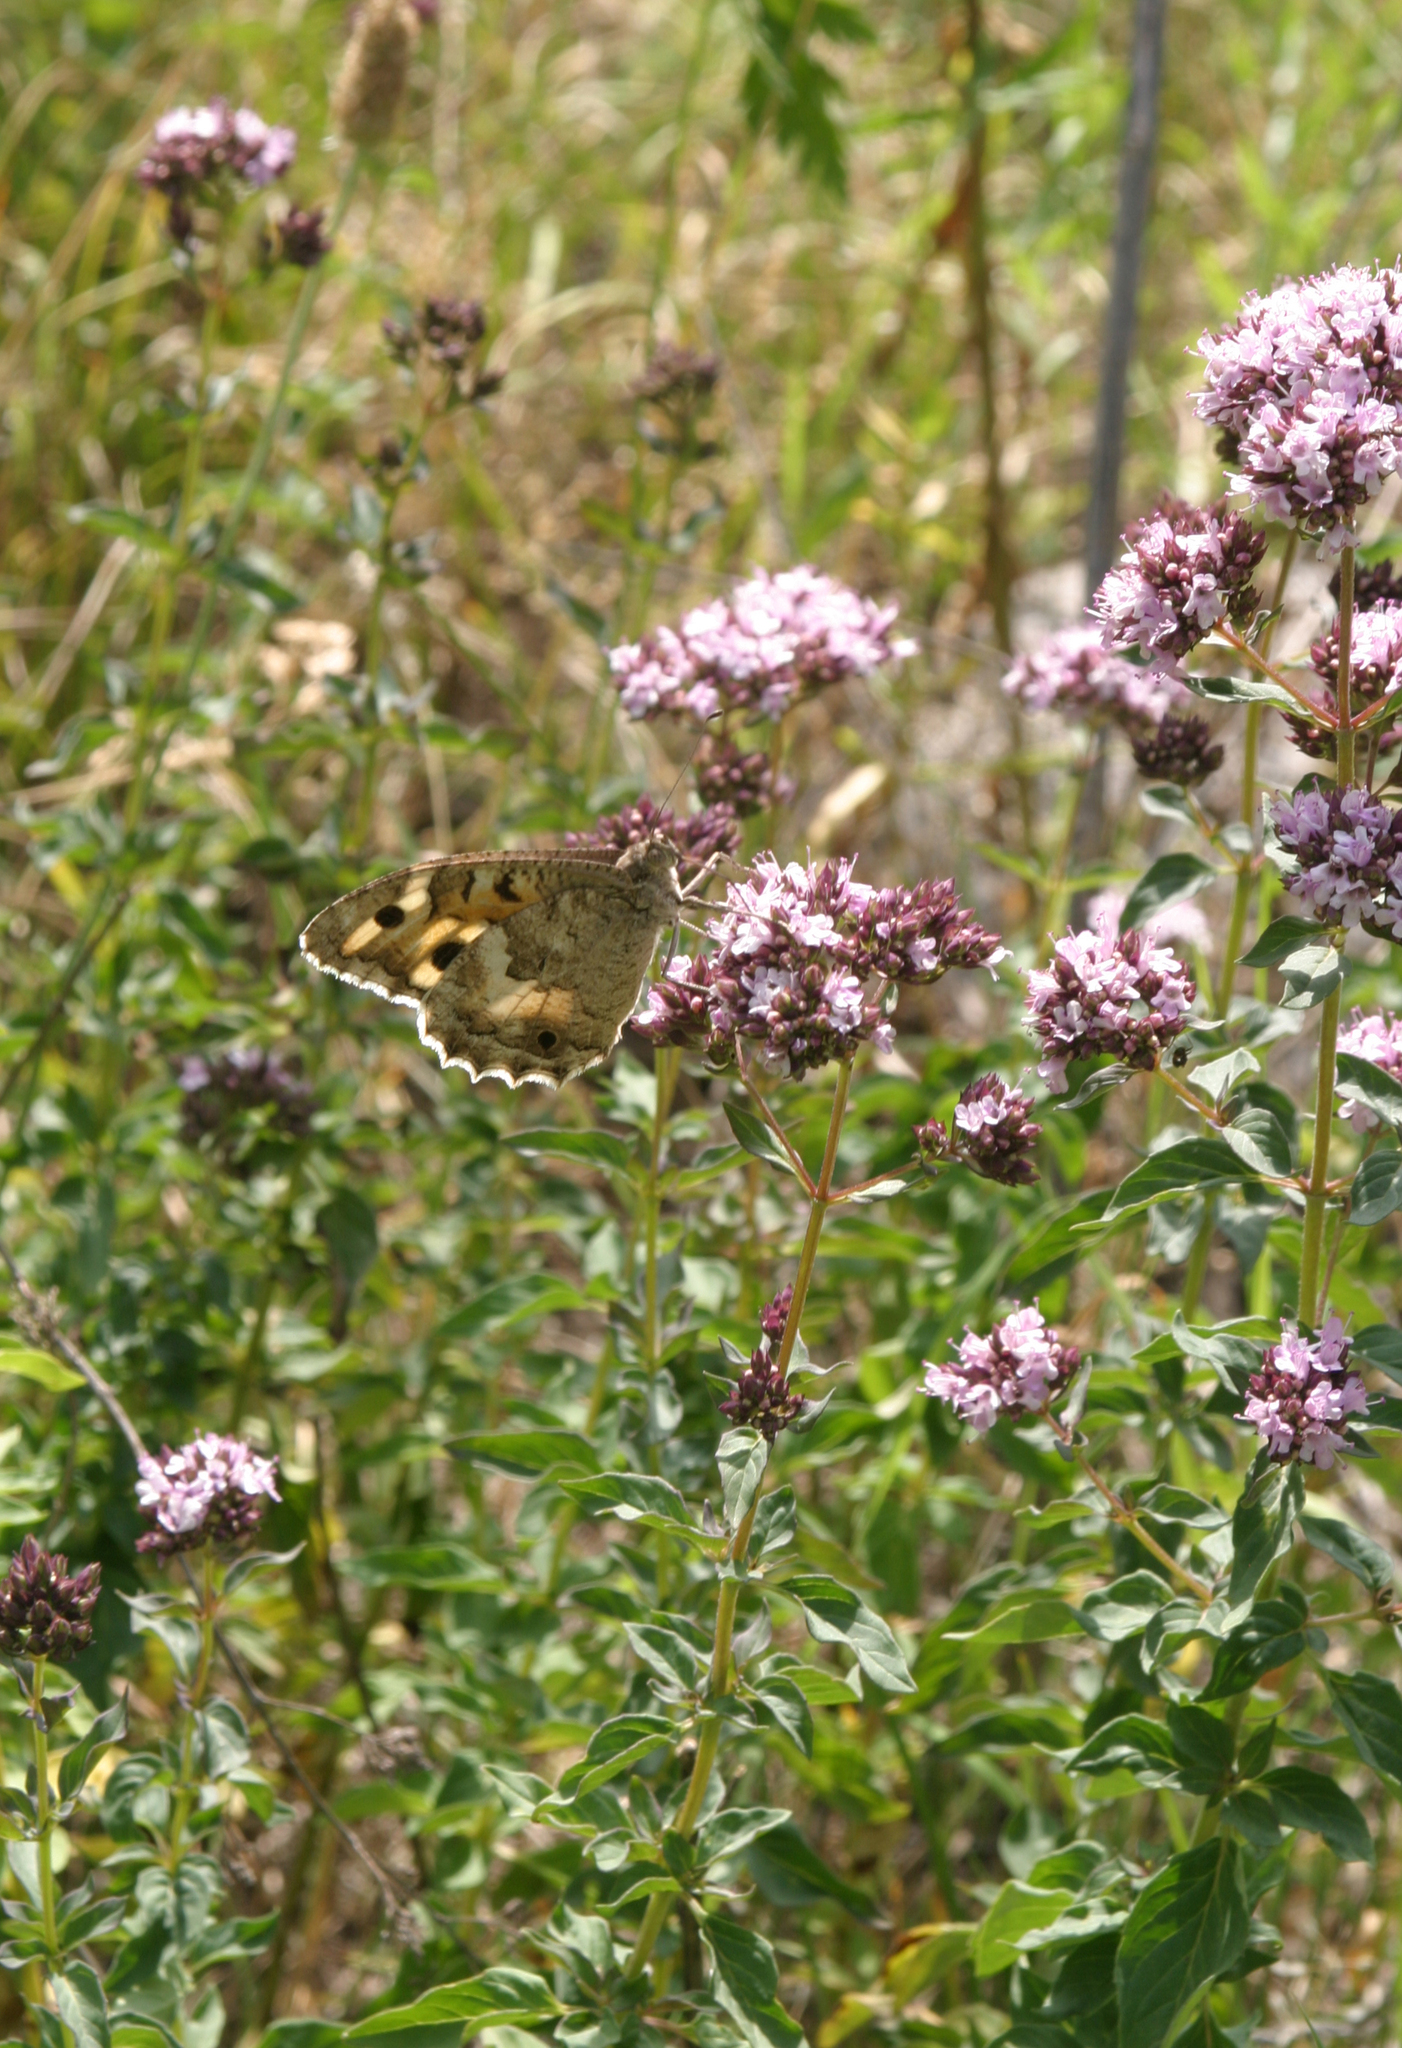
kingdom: Plantae
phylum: Tracheophyta
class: Magnoliopsida
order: Lamiales
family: Lamiaceae
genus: Origanum
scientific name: Origanum vulgare
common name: Wild marjoram
